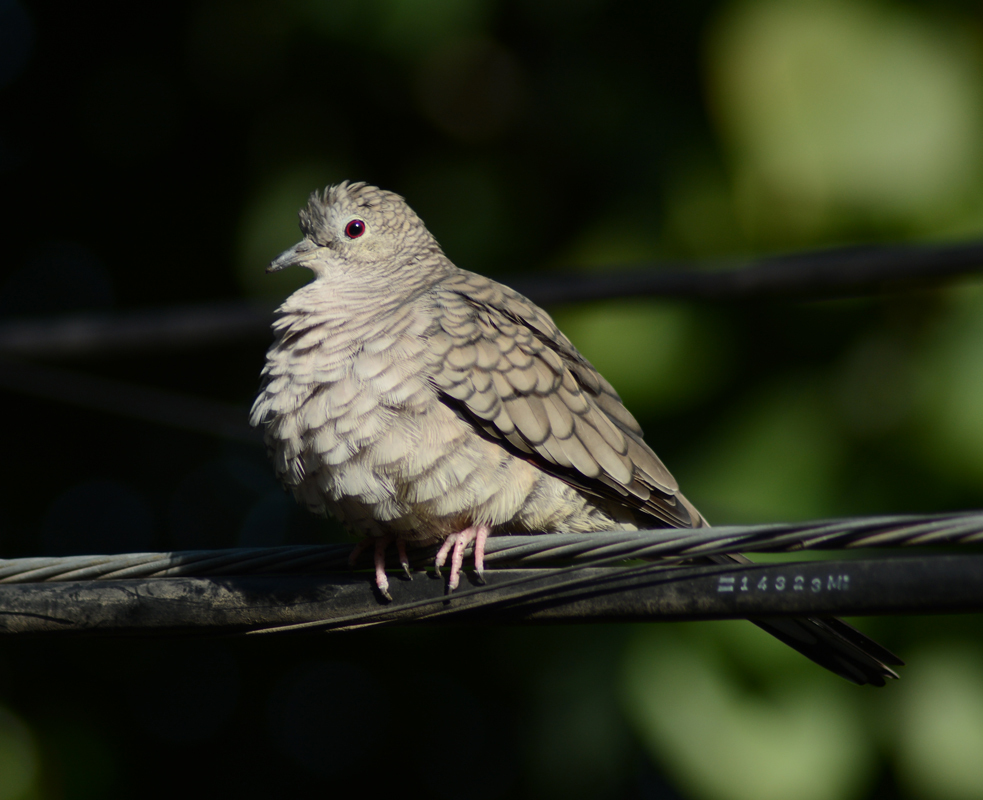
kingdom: Animalia
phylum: Chordata
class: Aves
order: Columbiformes
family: Columbidae
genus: Columbina
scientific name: Columbina inca
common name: Inca dove
